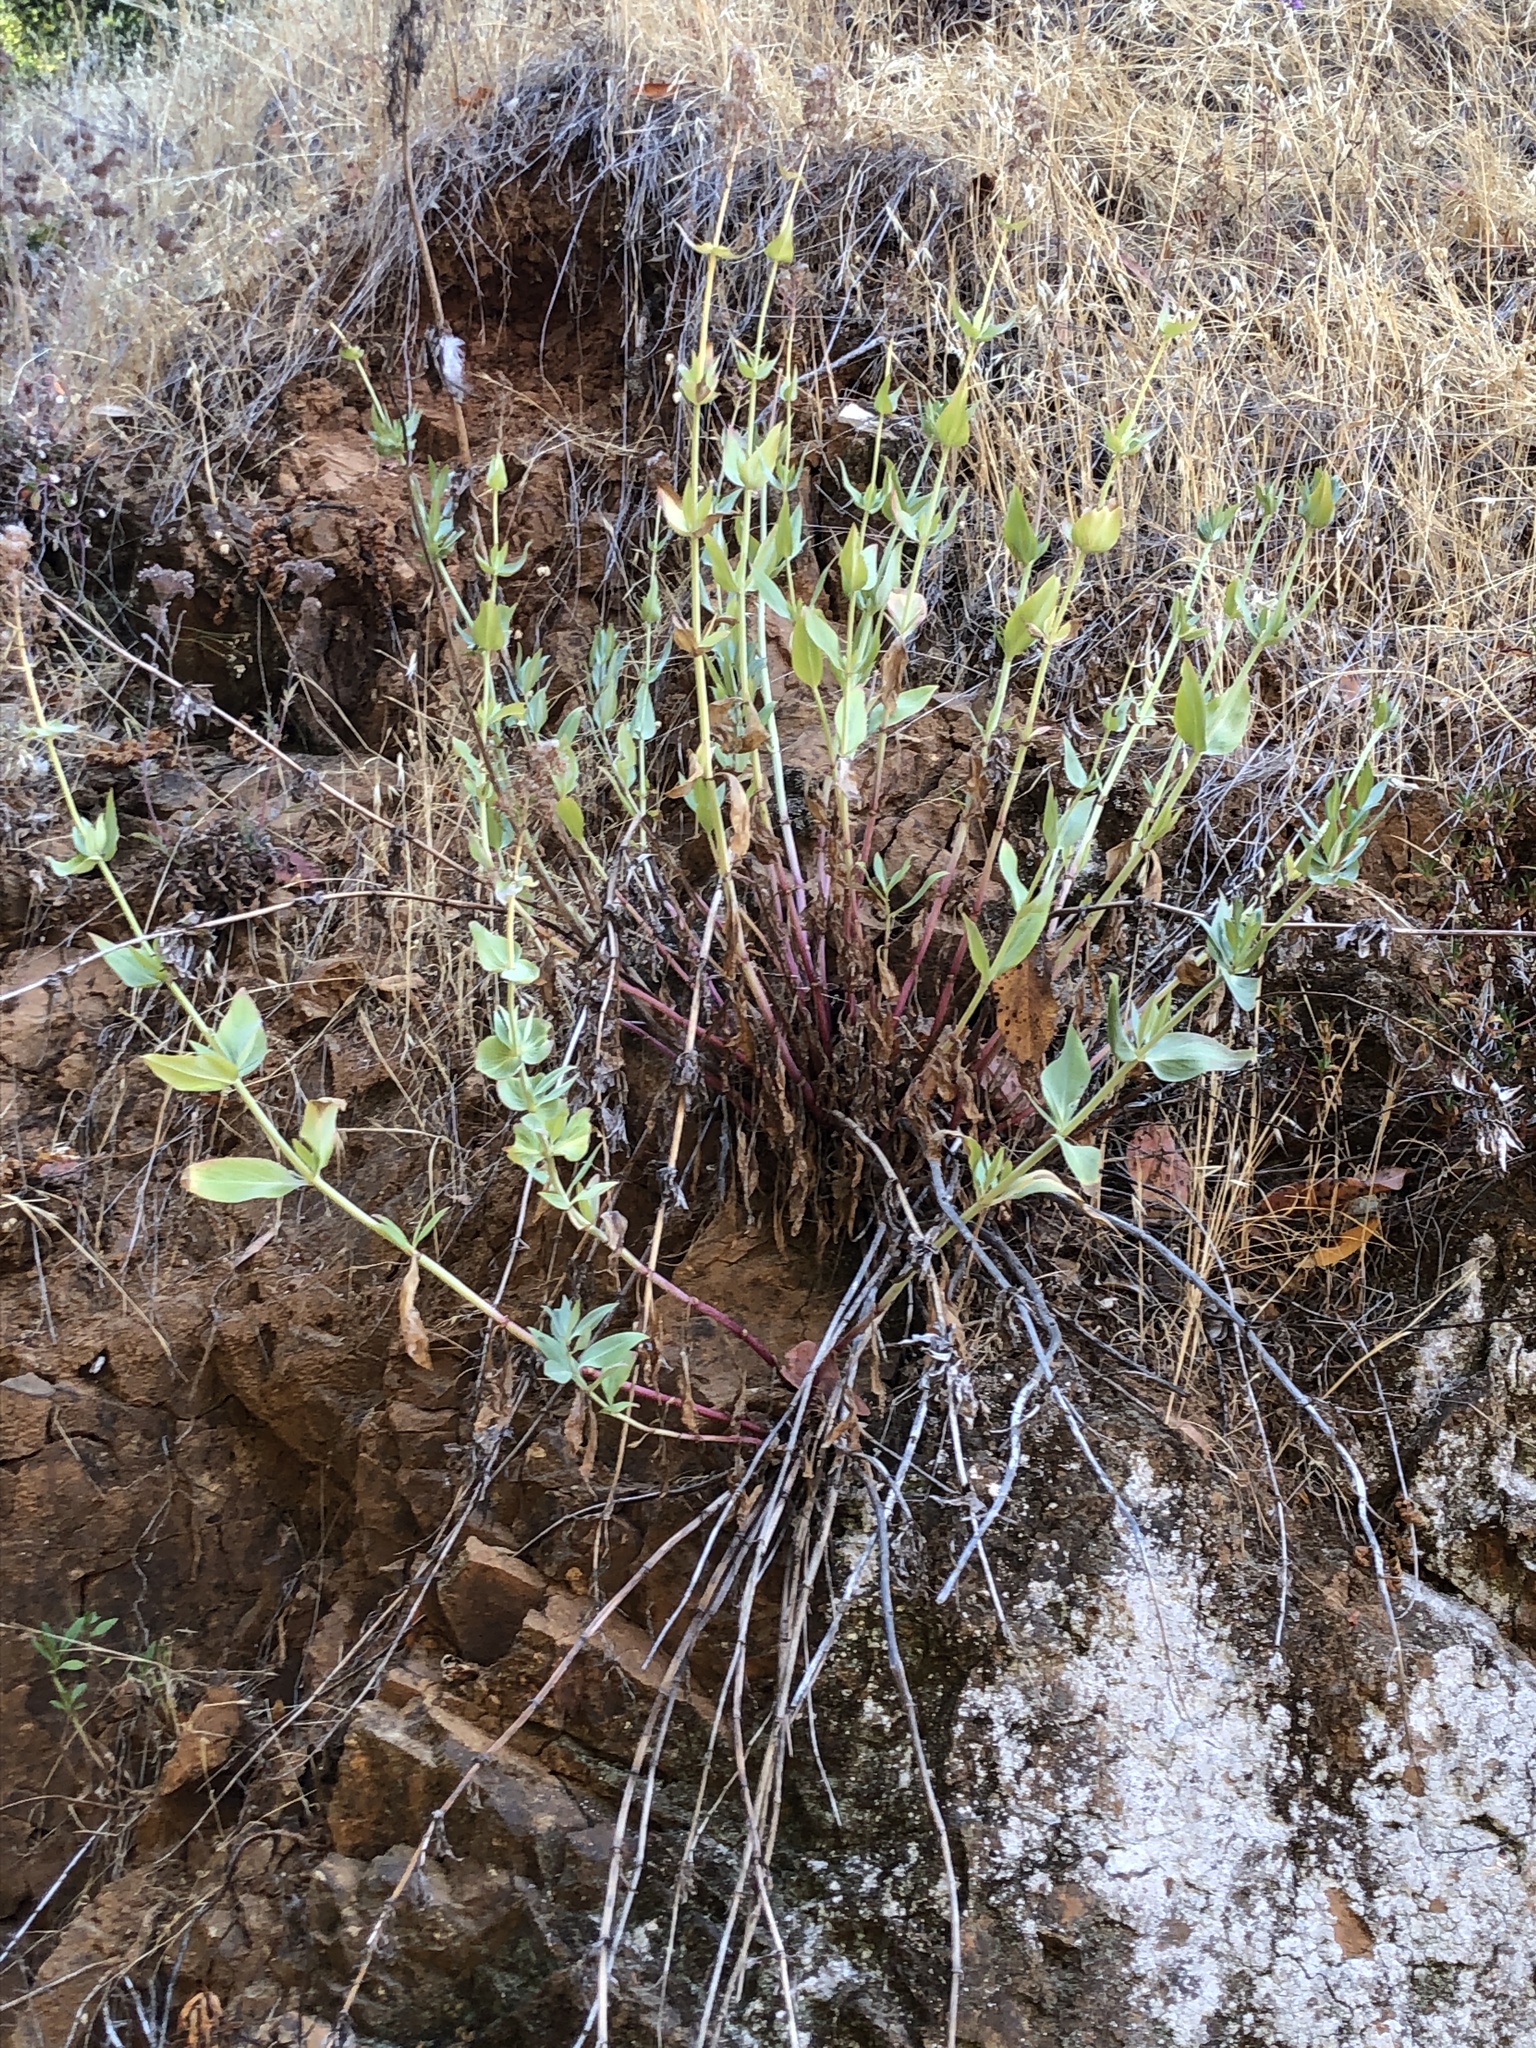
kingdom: Plantae
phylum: Tracheophyta
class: Magnoliopsida
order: Dipsacales
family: Caprifoliaceae
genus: Centranthus
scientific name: Centranthus ruber
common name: Red valerian
